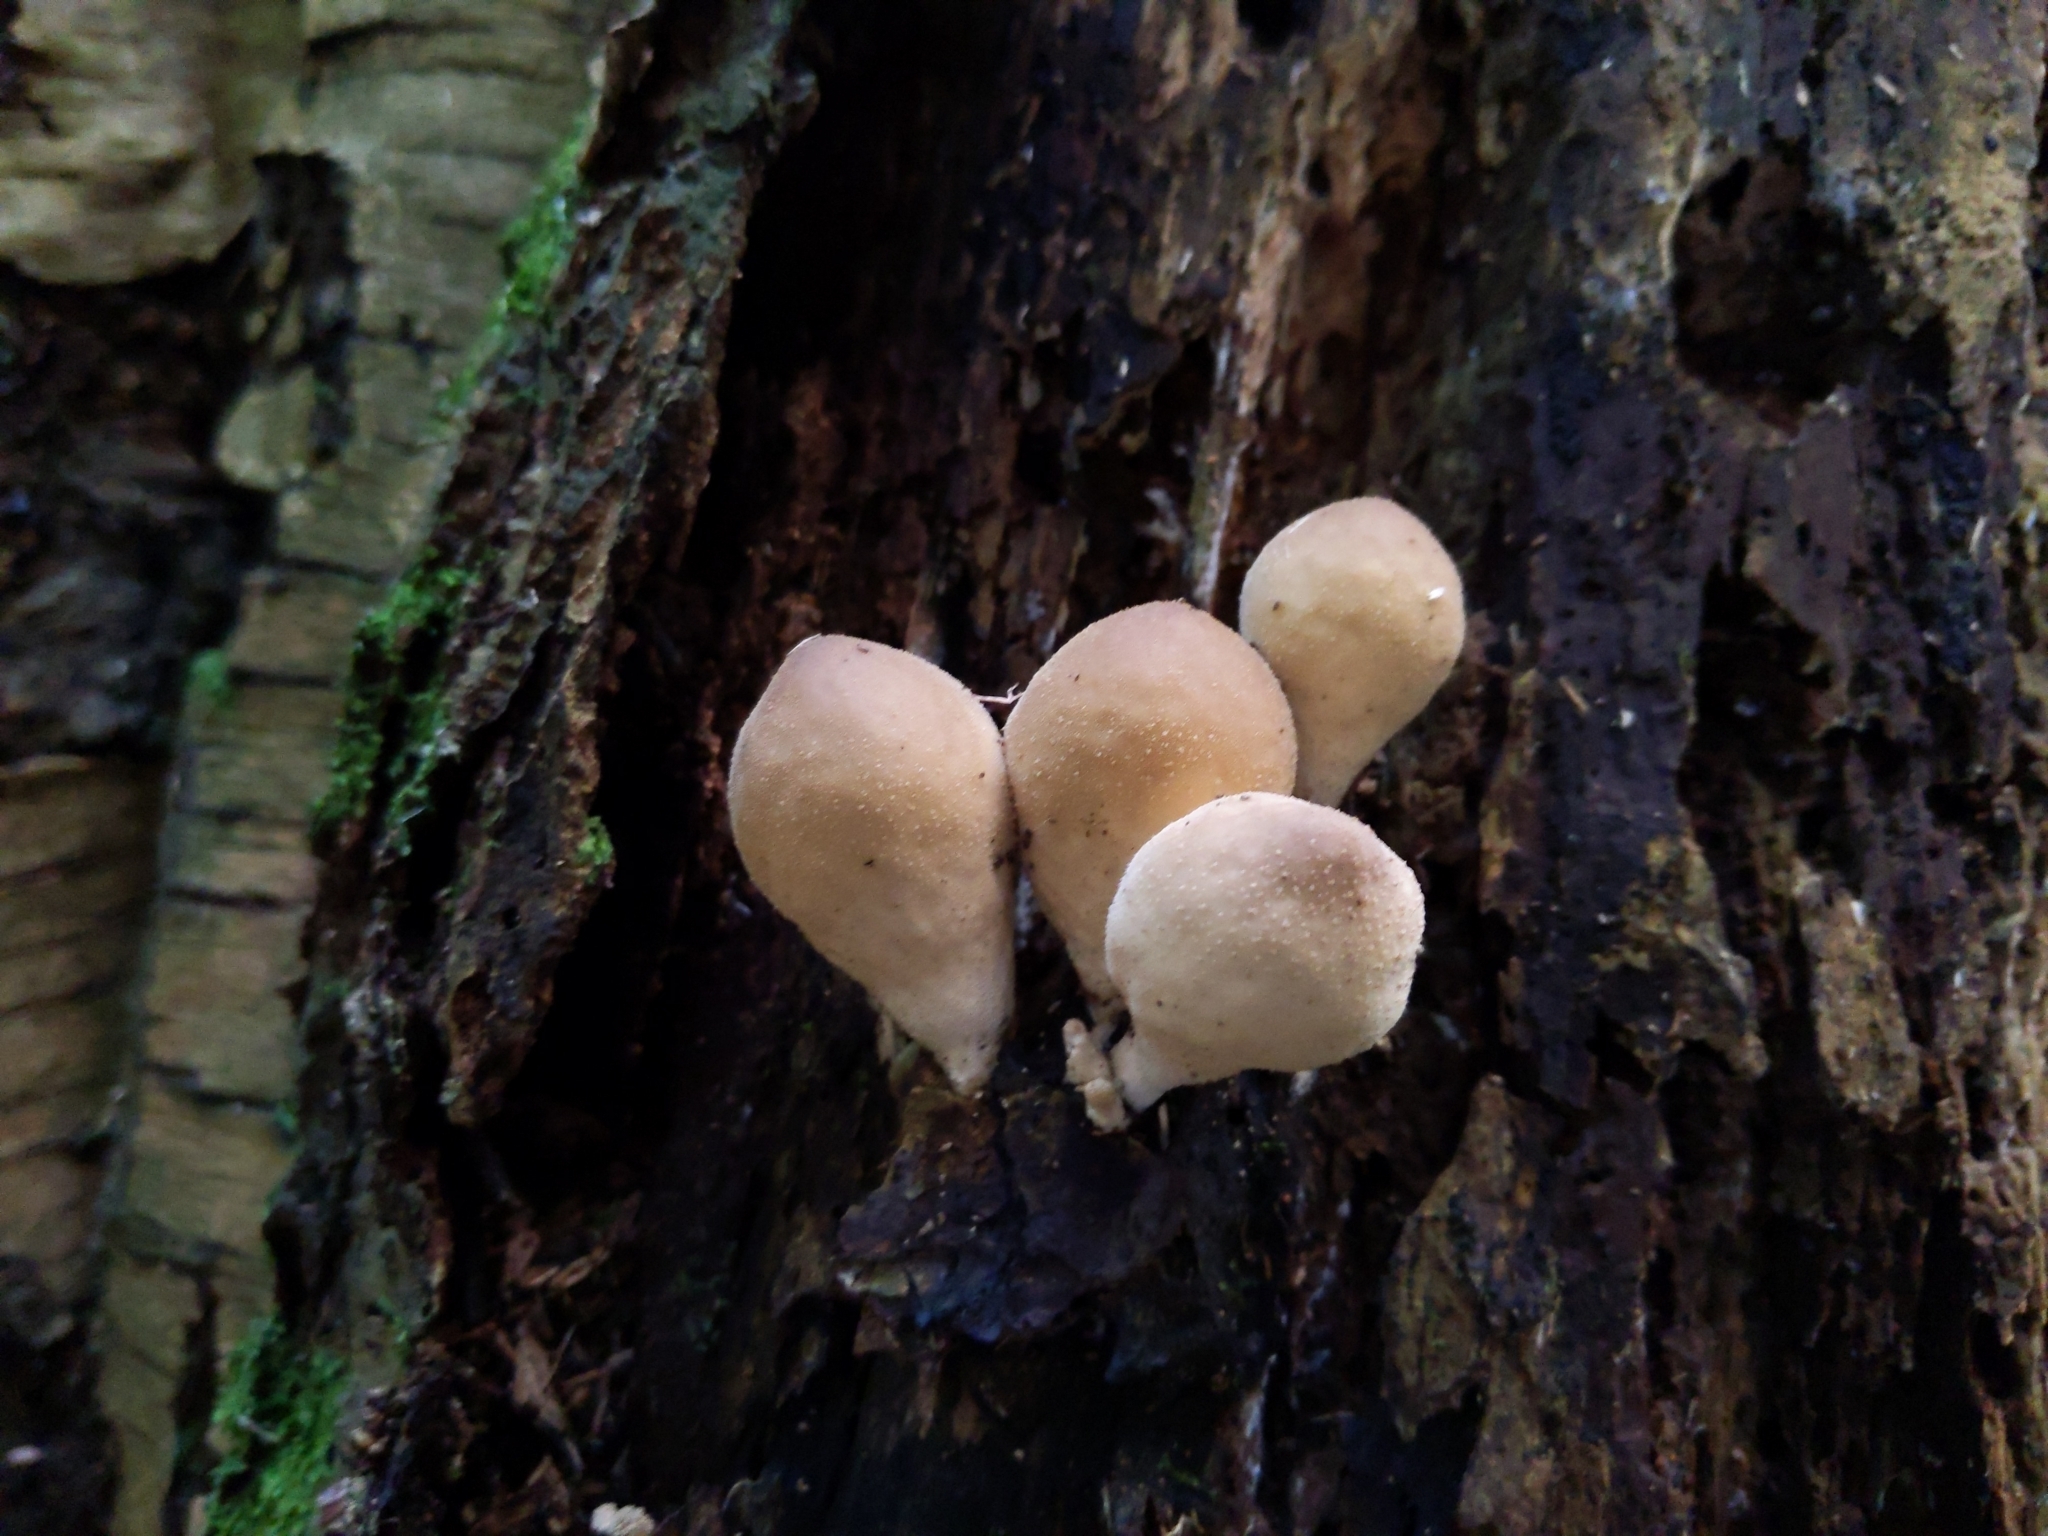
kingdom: Fungi
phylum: Basidiomycota
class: Agaricomycetes
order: Agaricales
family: Lycoperdaceae
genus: Apioperdon
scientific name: Apioperdon pyriforme
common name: Pear-shaped puffball
